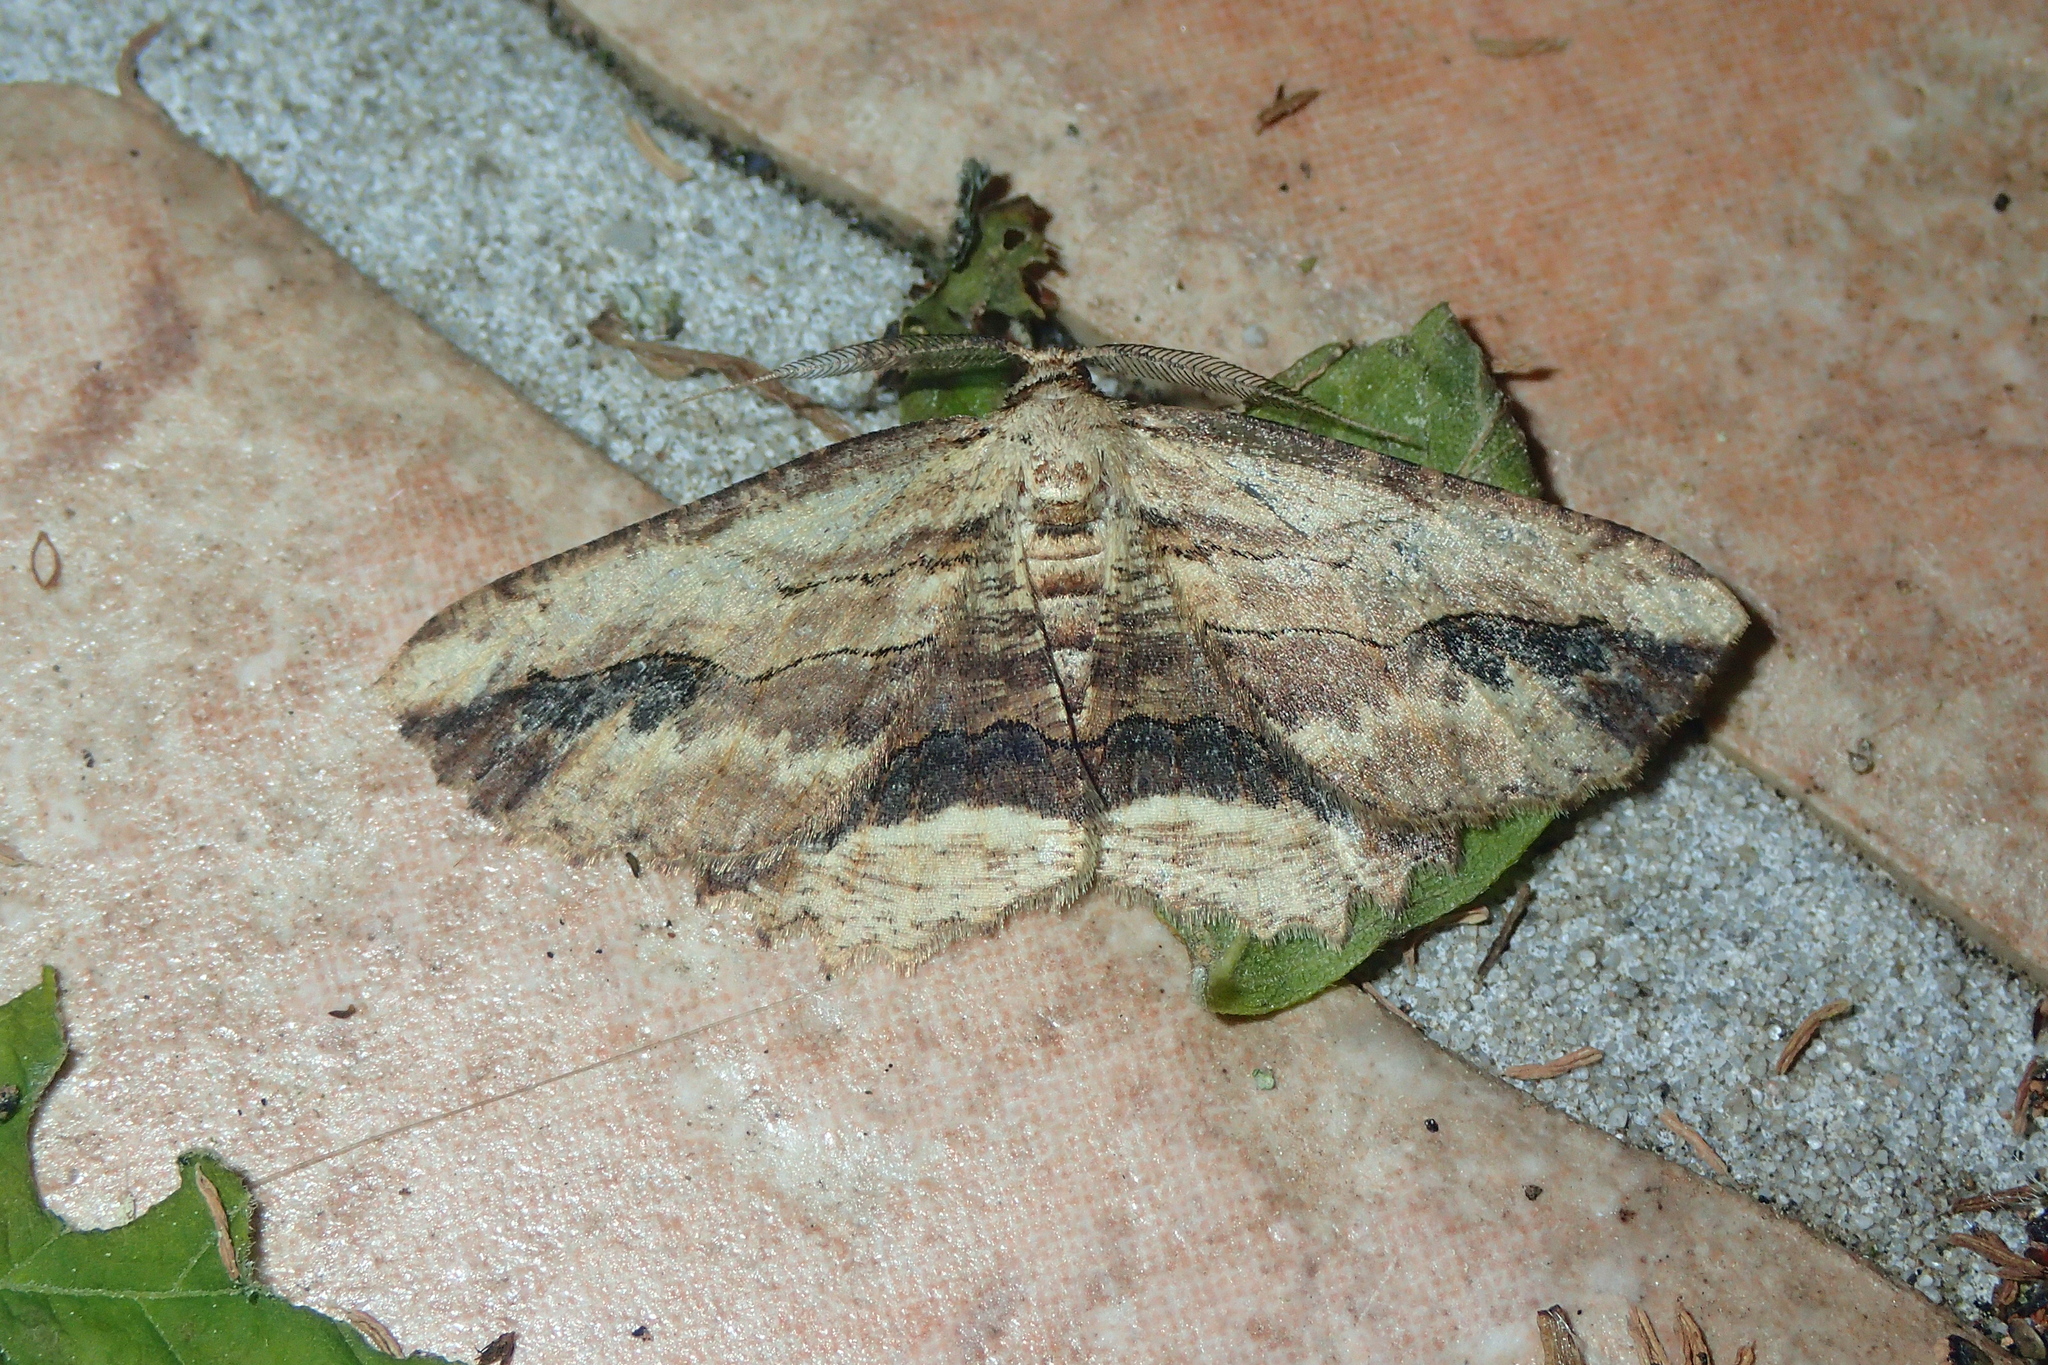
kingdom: Animalia
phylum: Arthropoda
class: Insecta
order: Lepidoptera
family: Geometridae
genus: Menophra
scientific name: Menophra abruptaria
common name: Waved umber
